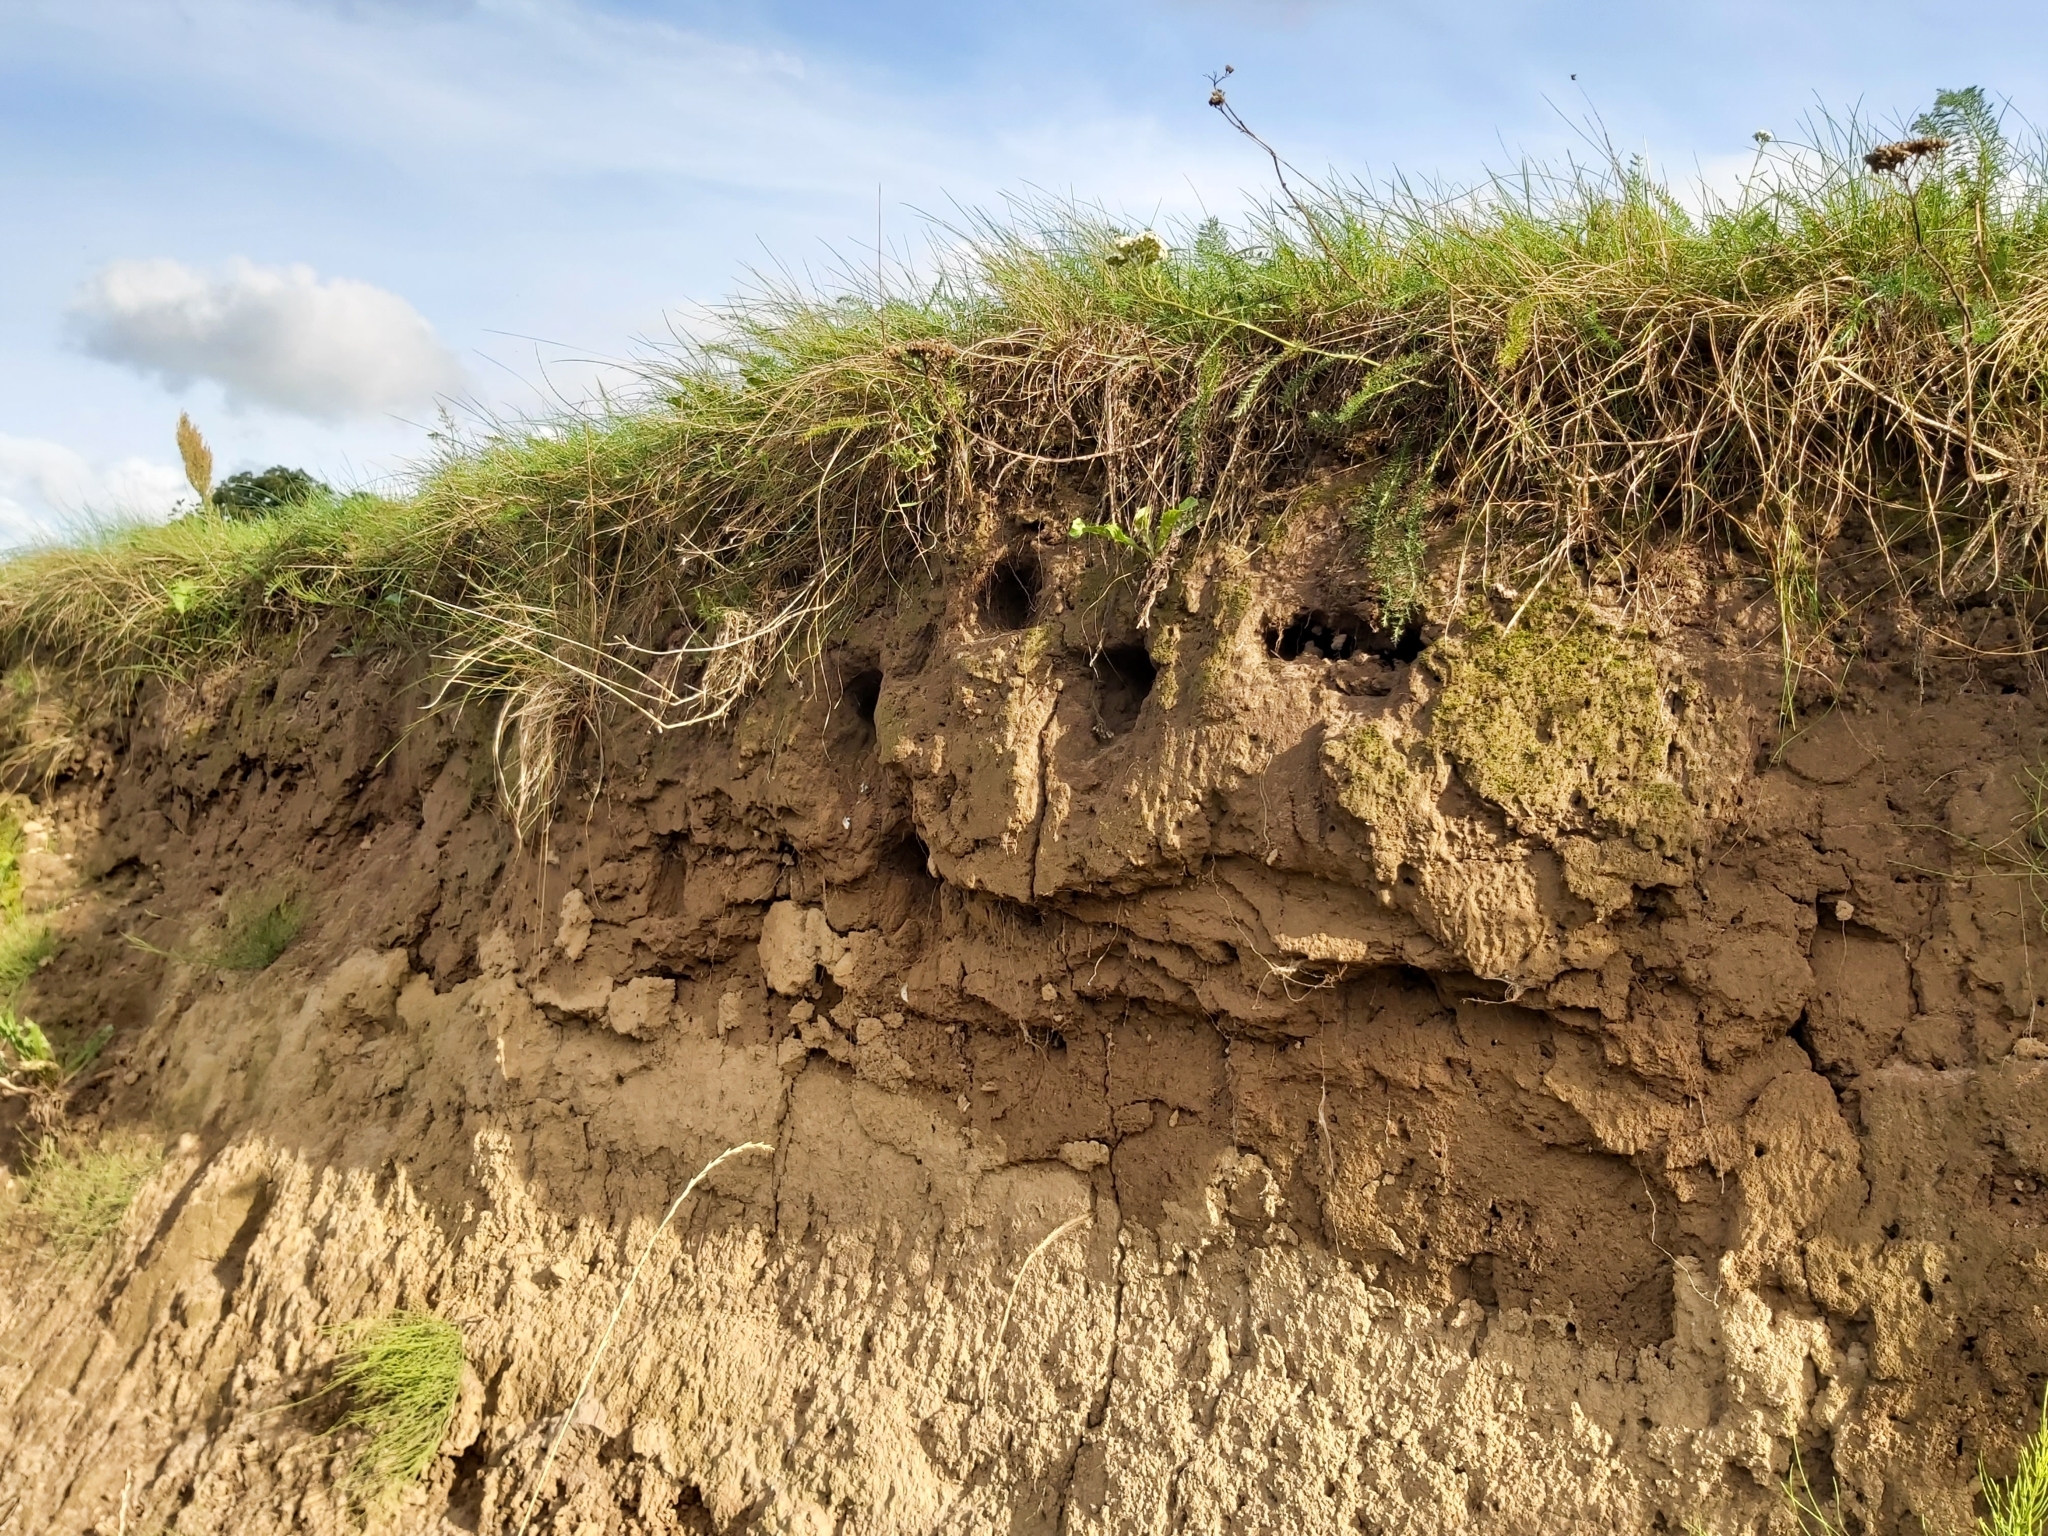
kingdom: Animalia
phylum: Chordata
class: Aves
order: Passeriformes
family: Hirundinidae
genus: Riparia
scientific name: Riparia riparia
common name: Sand martin
